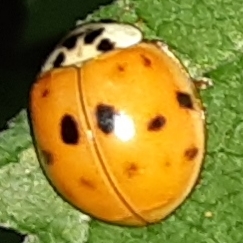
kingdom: Animalia
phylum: Arthropoda
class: Insecta
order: Coleoptera
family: Coccinellidae
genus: Harmonia
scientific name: Harmonia axyridis
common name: Harlequin ladybird
